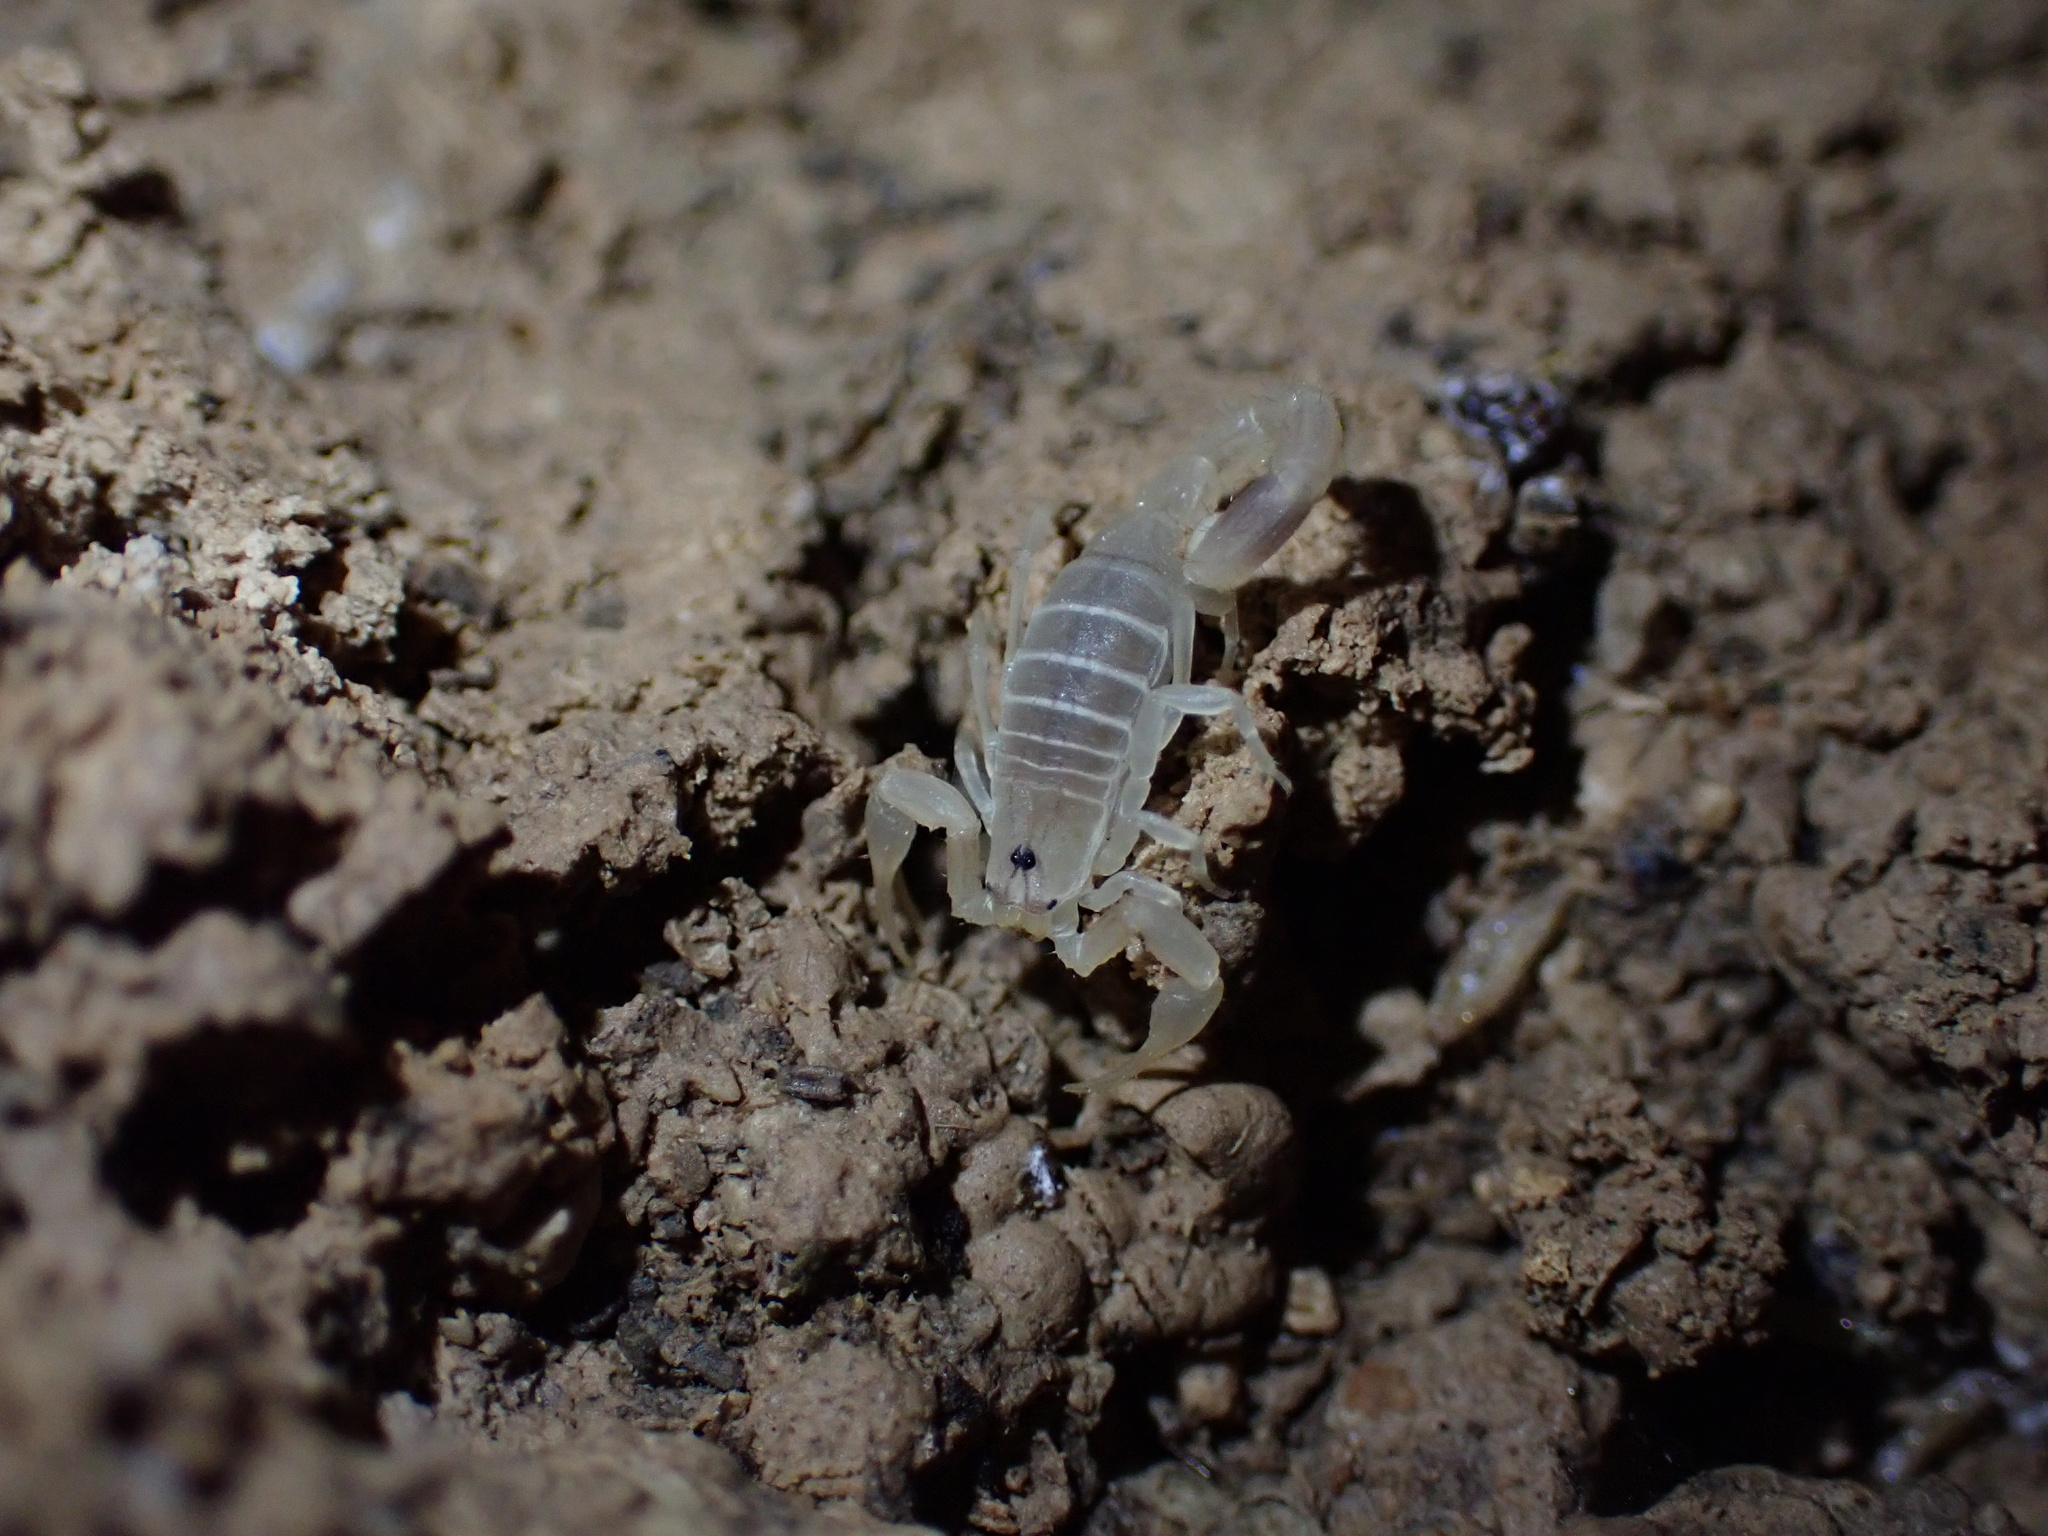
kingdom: Animalia
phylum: Arthropoda
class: Arachnida
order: Scorpiones
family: Buthidae
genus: Razianus
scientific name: Razianus zarudnyi
